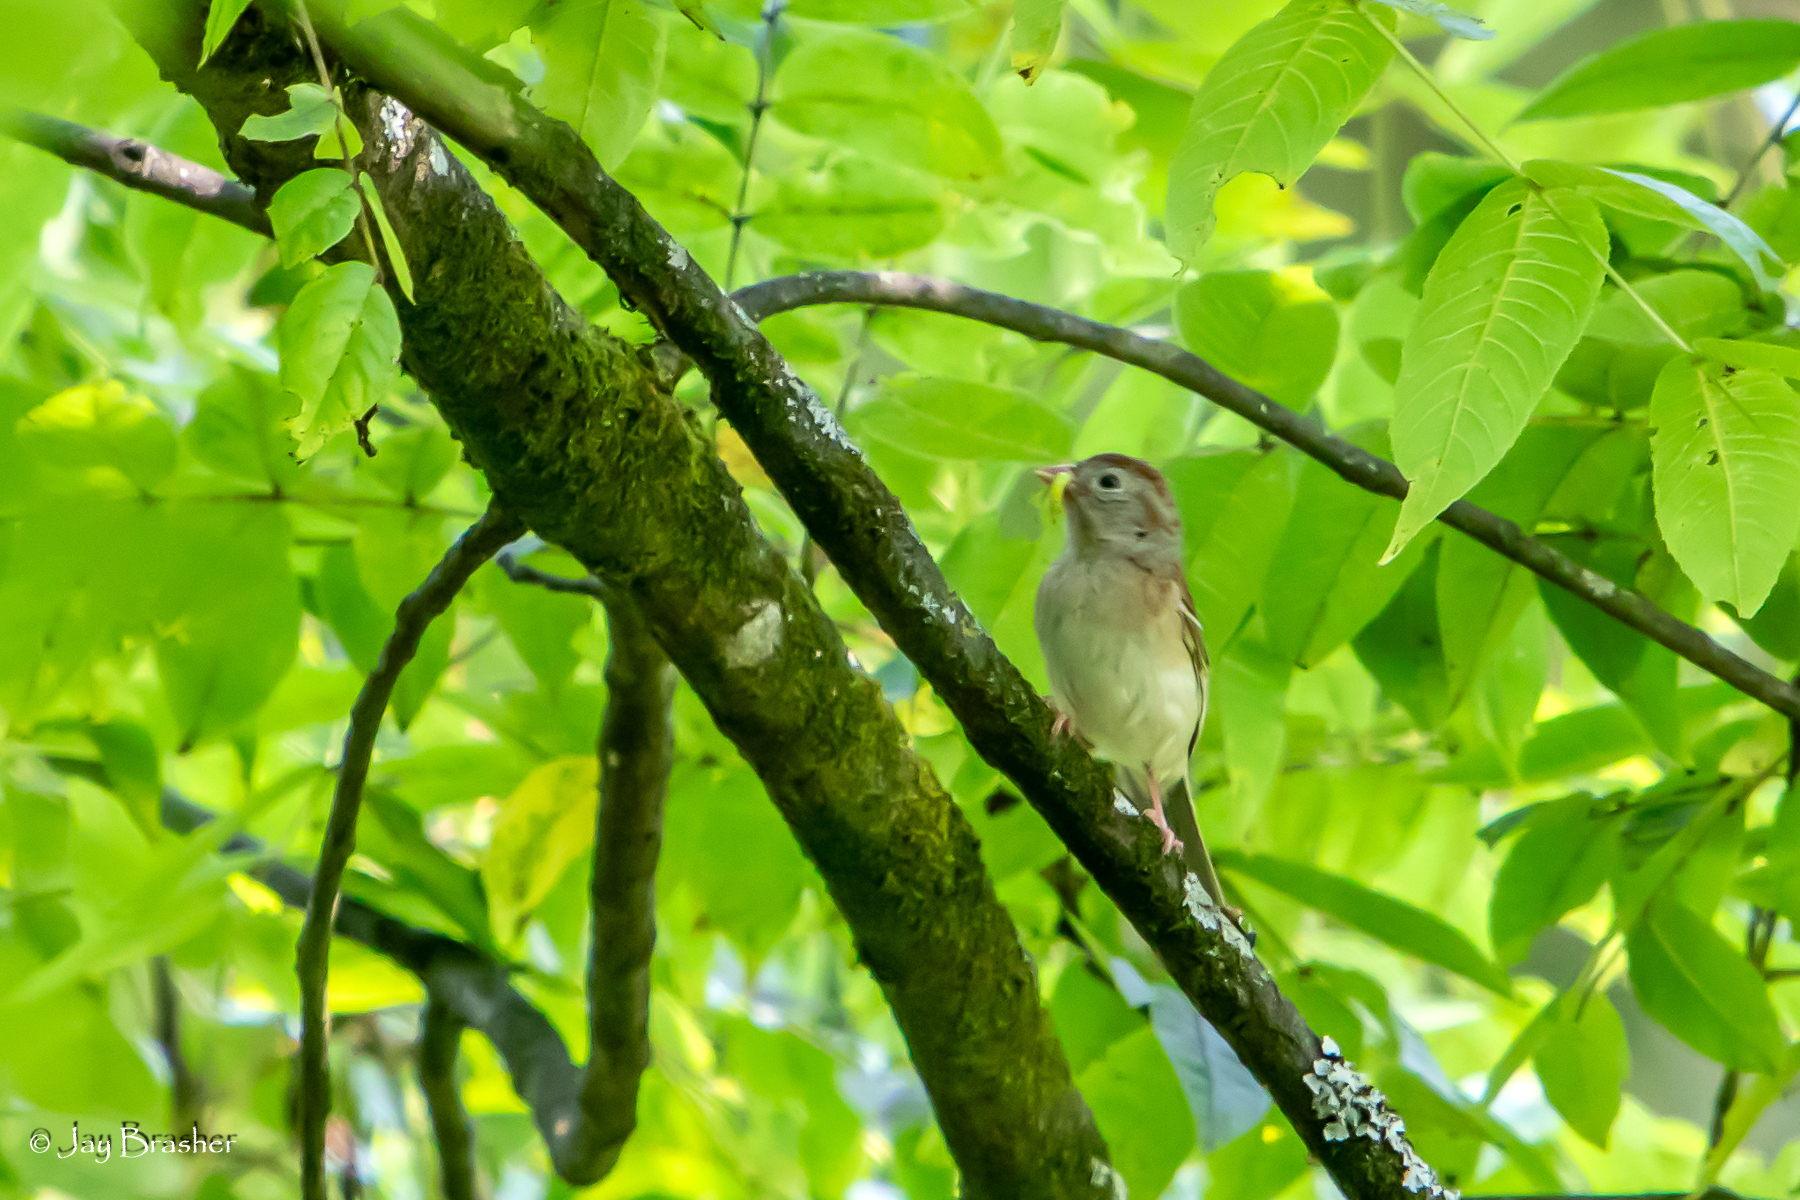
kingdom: Animalia
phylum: Chordata
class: Aves
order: Passeriformes
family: Passerellidae
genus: Spizella
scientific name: Spizella pusilla
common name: Field sparrow
